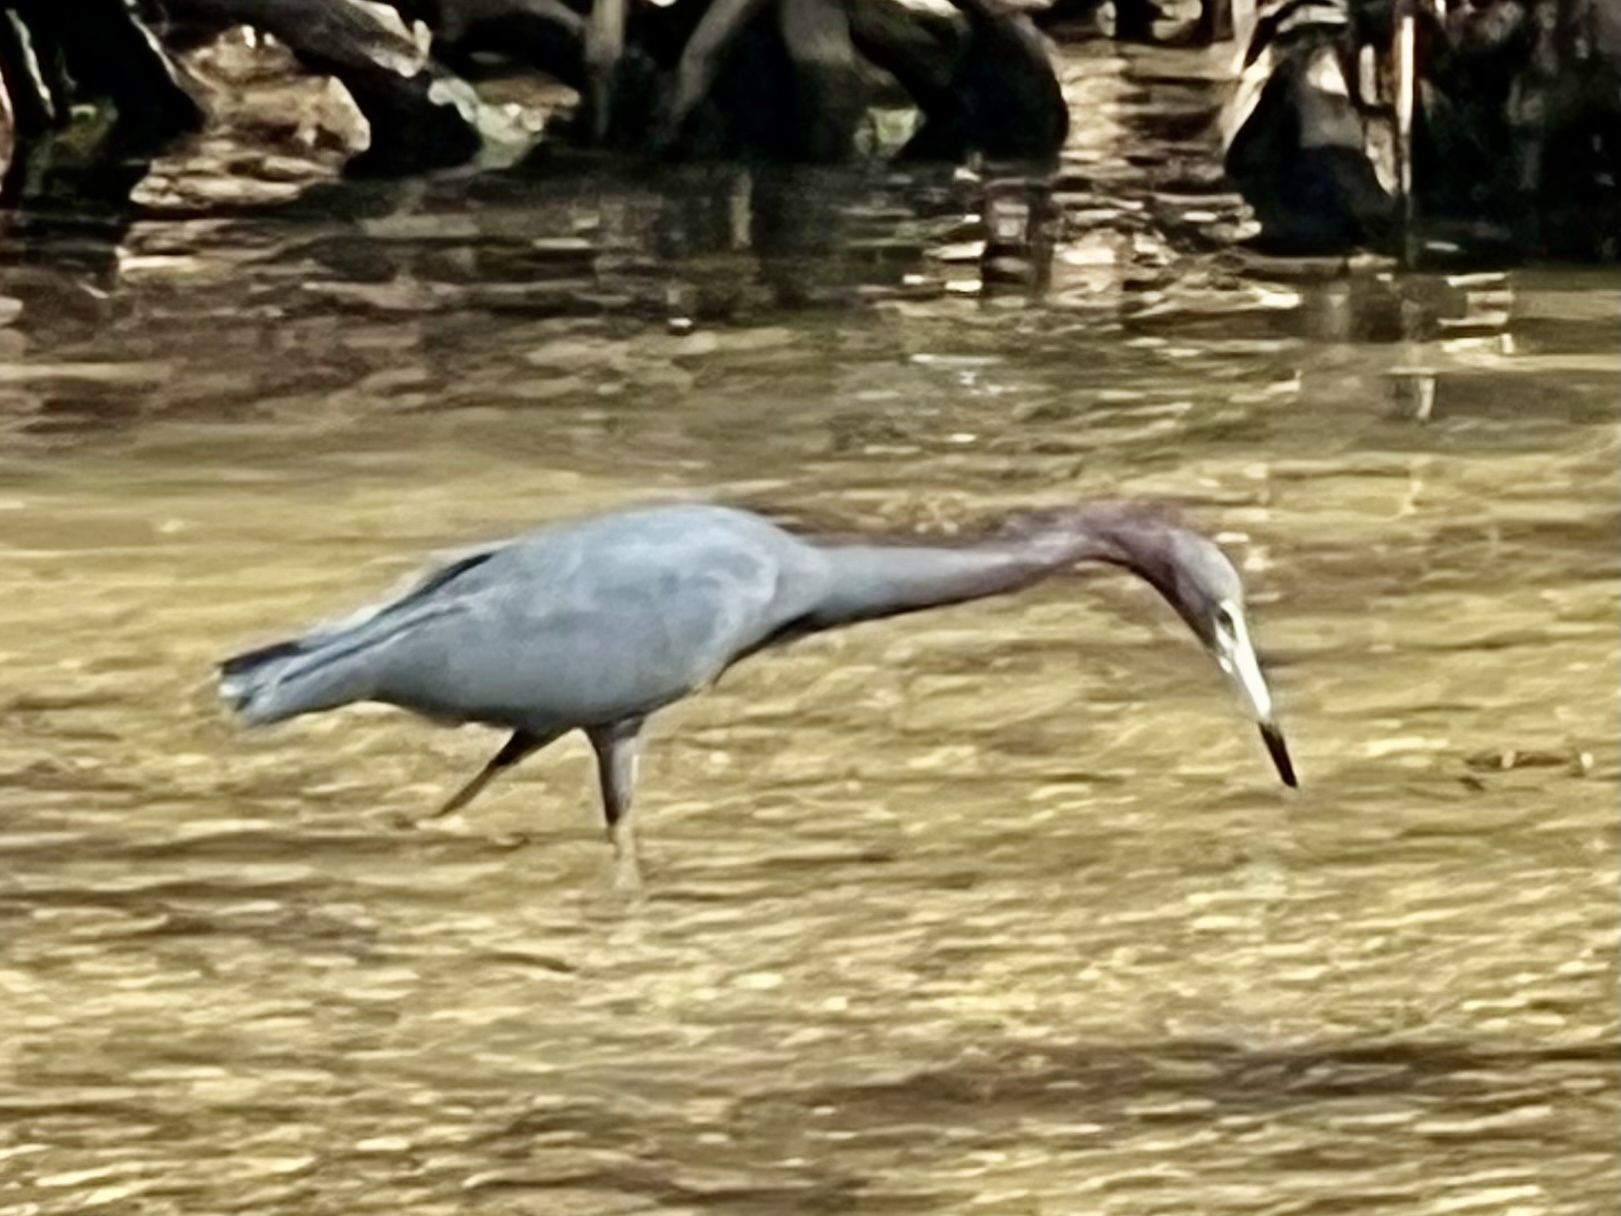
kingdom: Animalia
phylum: Chordata
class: Aves
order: Pelecaniformes
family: Ardeidae
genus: Egretta
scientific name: Egretta caerulea
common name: Little blue heron
